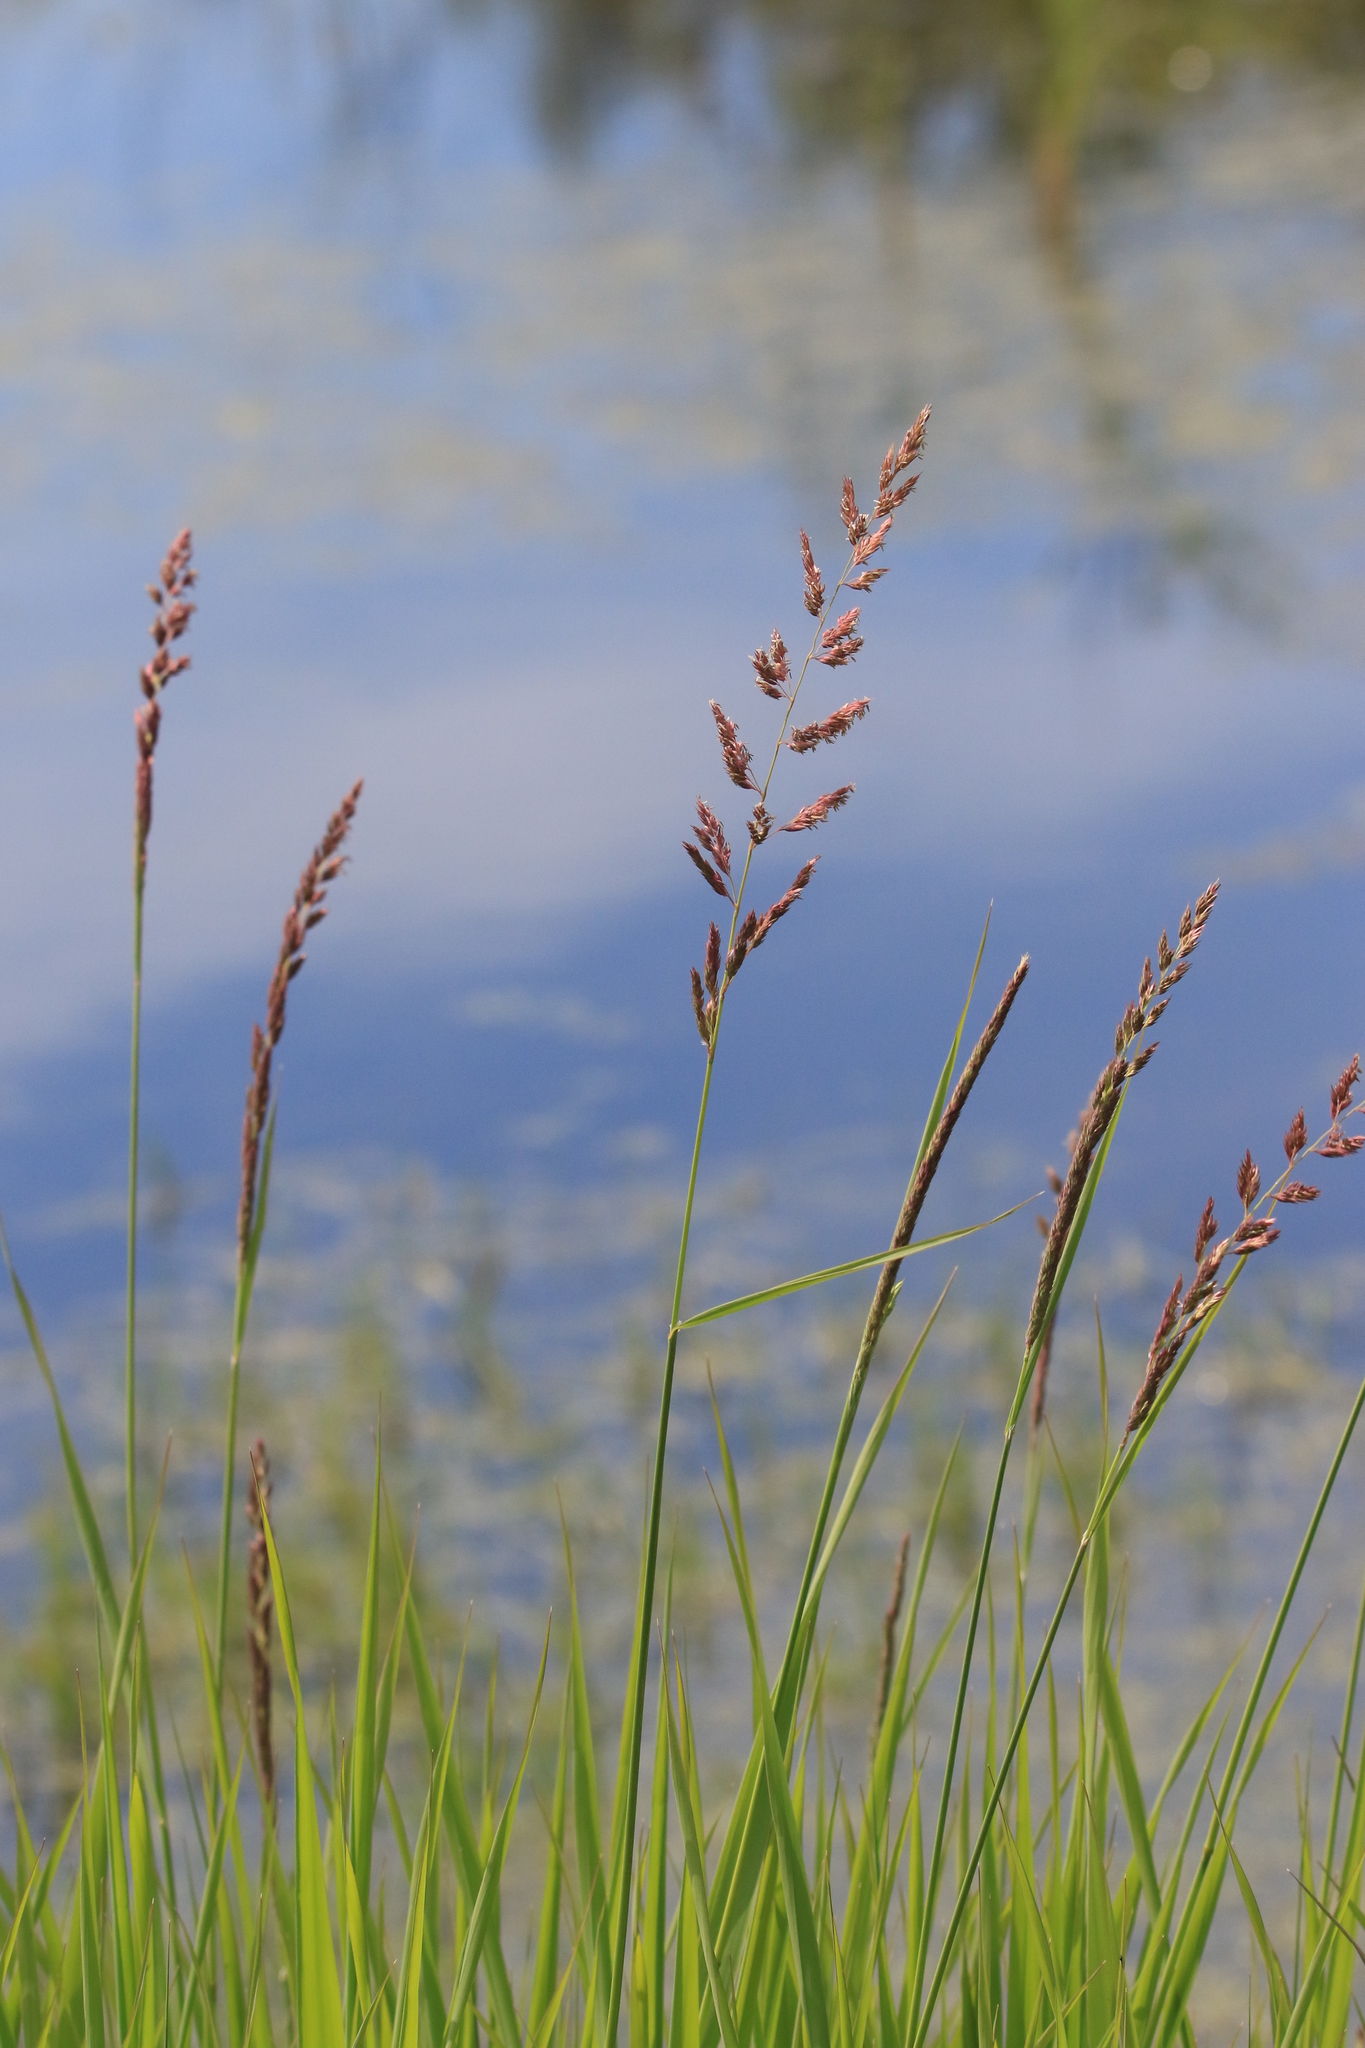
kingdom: Plantae
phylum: Tracheophyta
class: Liliopsida
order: Poales
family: Poaceae
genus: Phalaris
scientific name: Phalaris arundinacea
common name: Reed canary-grass
